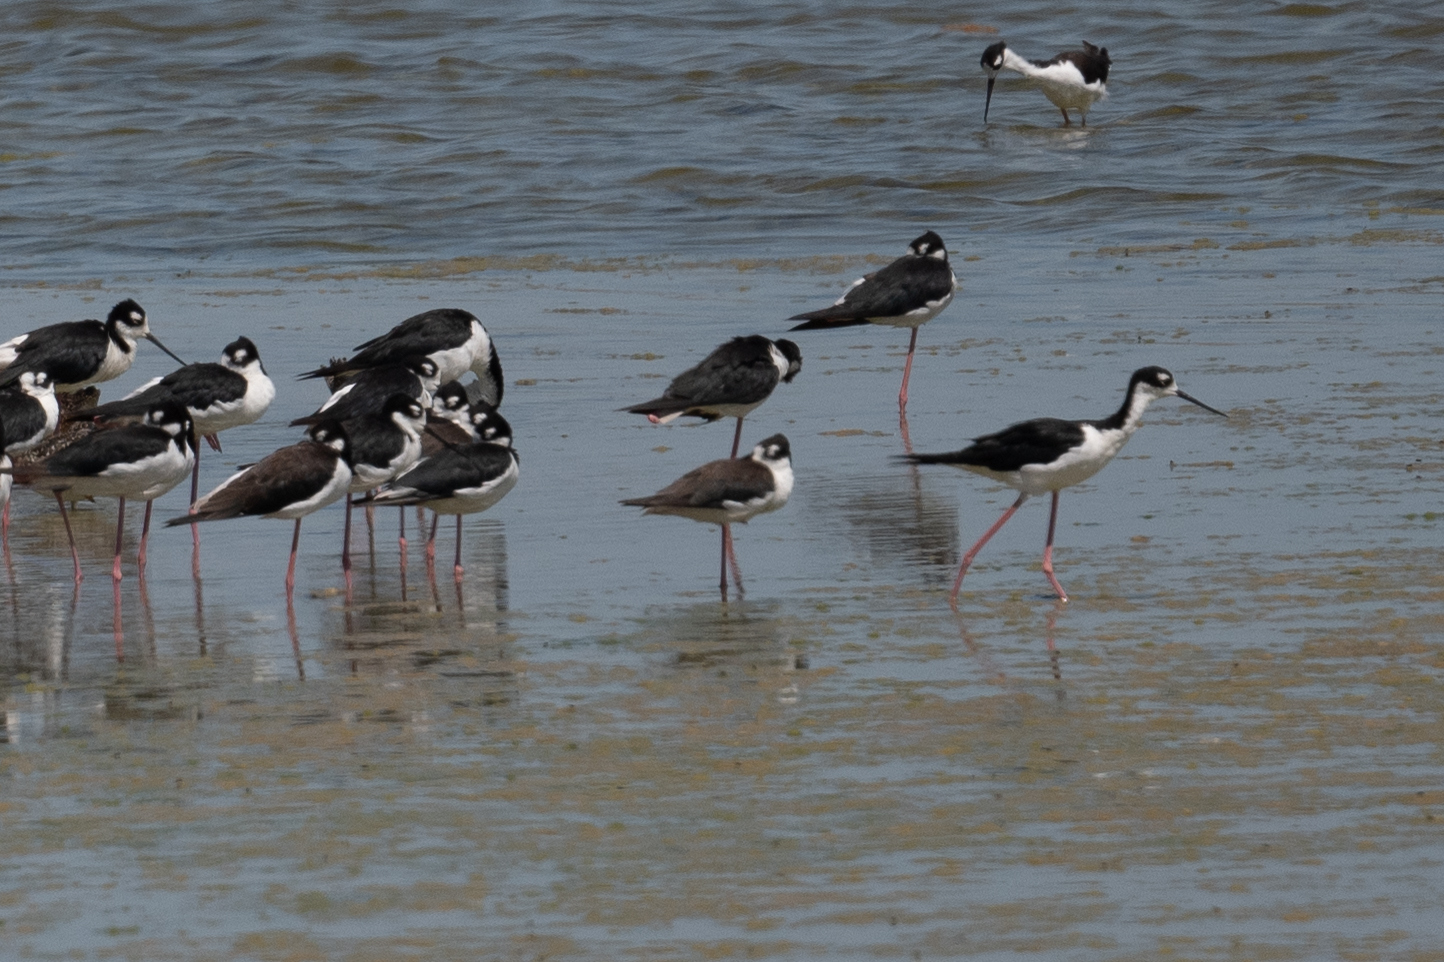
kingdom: Animalia
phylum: Chordata
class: Aves
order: Charadriiformes
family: Recurvirostridae
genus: Himantopus
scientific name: Himantopus mexicanus
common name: Black-necked stilt
